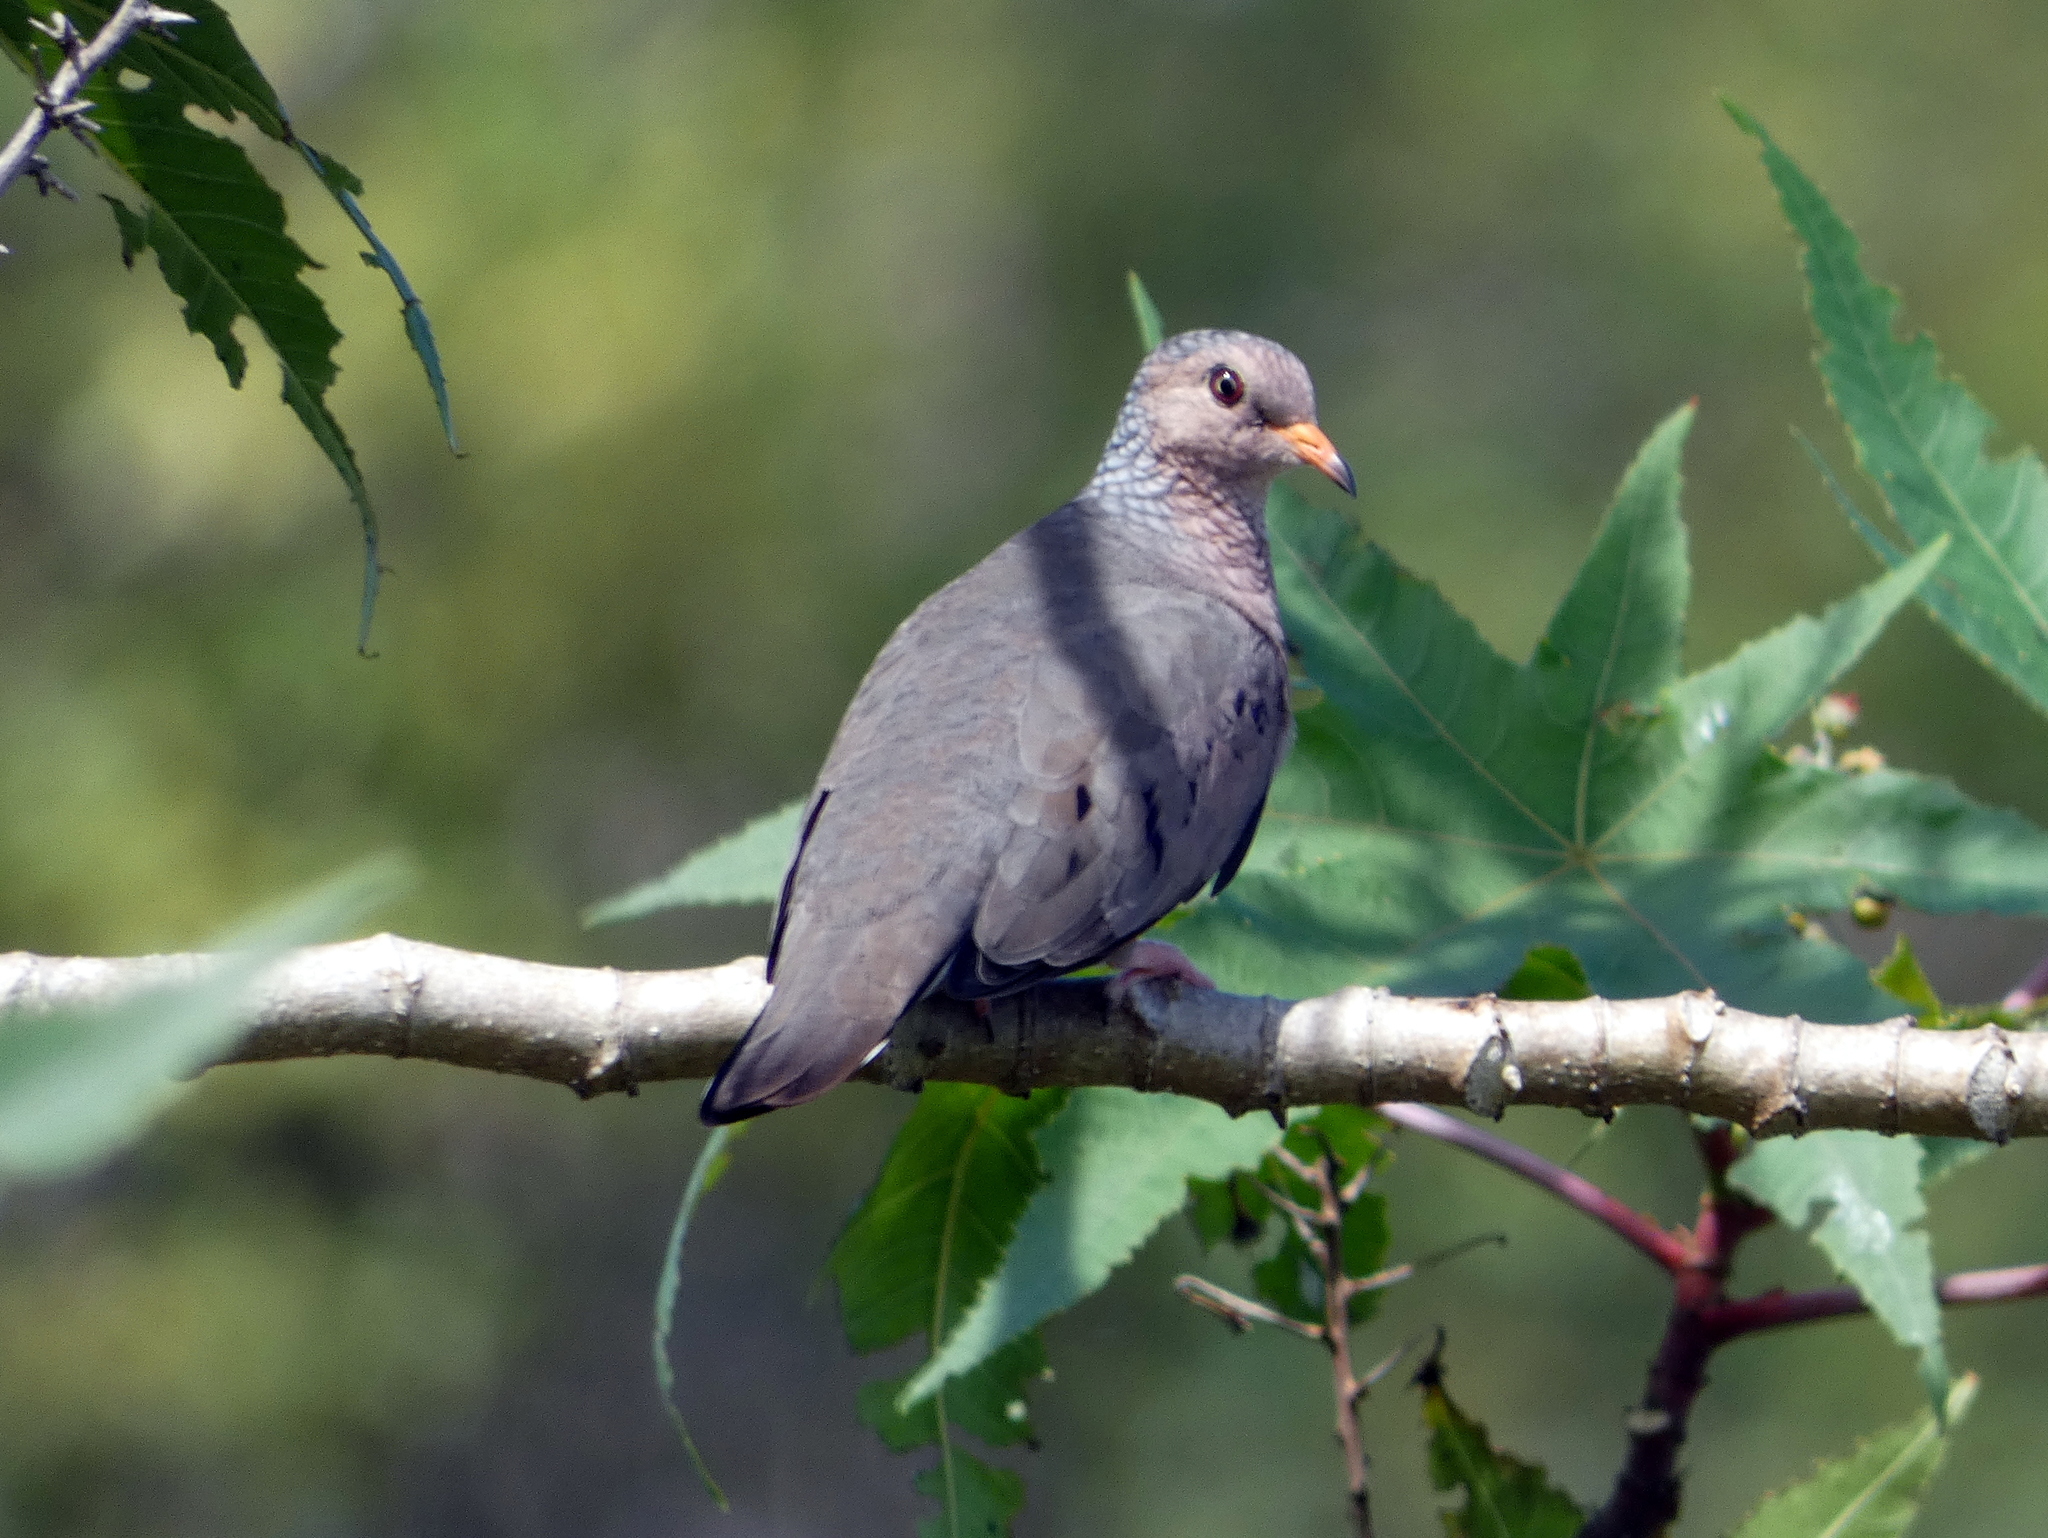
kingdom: Animalia
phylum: Chordata
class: Aves
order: Columbiformes
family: Columbidae
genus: Columbina
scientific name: Columbina passerina
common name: Common ground-dove
